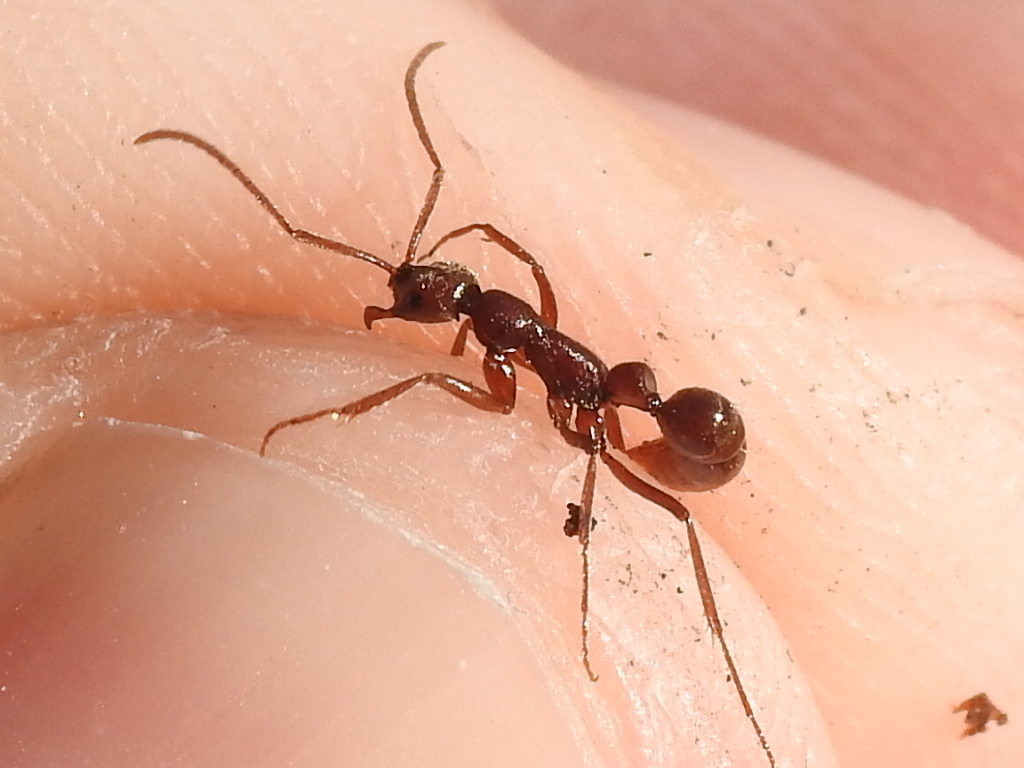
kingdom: Animalia
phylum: Arthropoda
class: Insecta
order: Hymenoptera
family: Formicidae
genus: Leptogenys
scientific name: Leptogenys elongata
